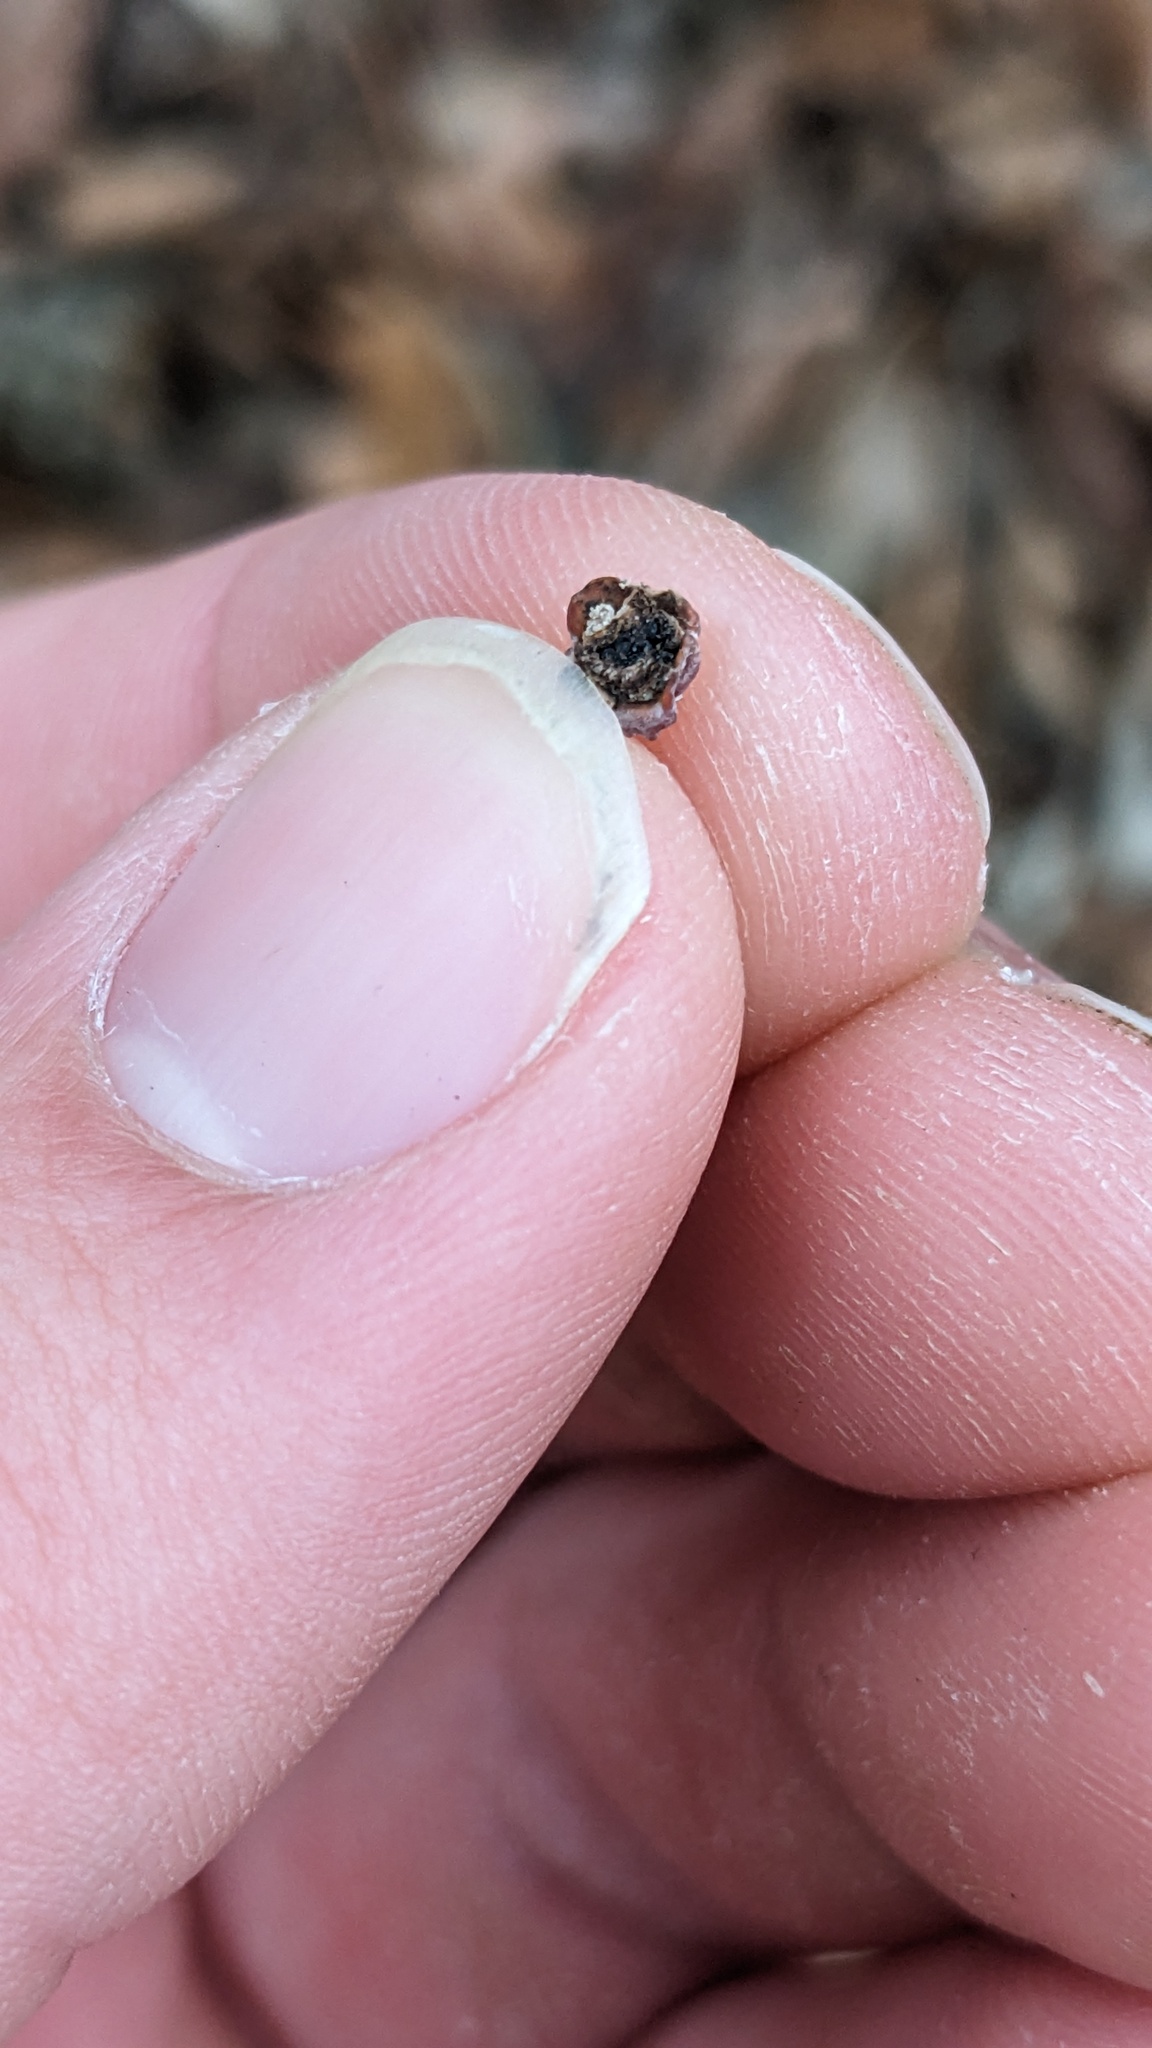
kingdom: Fungi
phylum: Basidiomycota
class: Agaricomycetes
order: Russulales
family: Peniophoraceae
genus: Peniophora
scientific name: Peniophora rufa
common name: Red tree brain fungus
